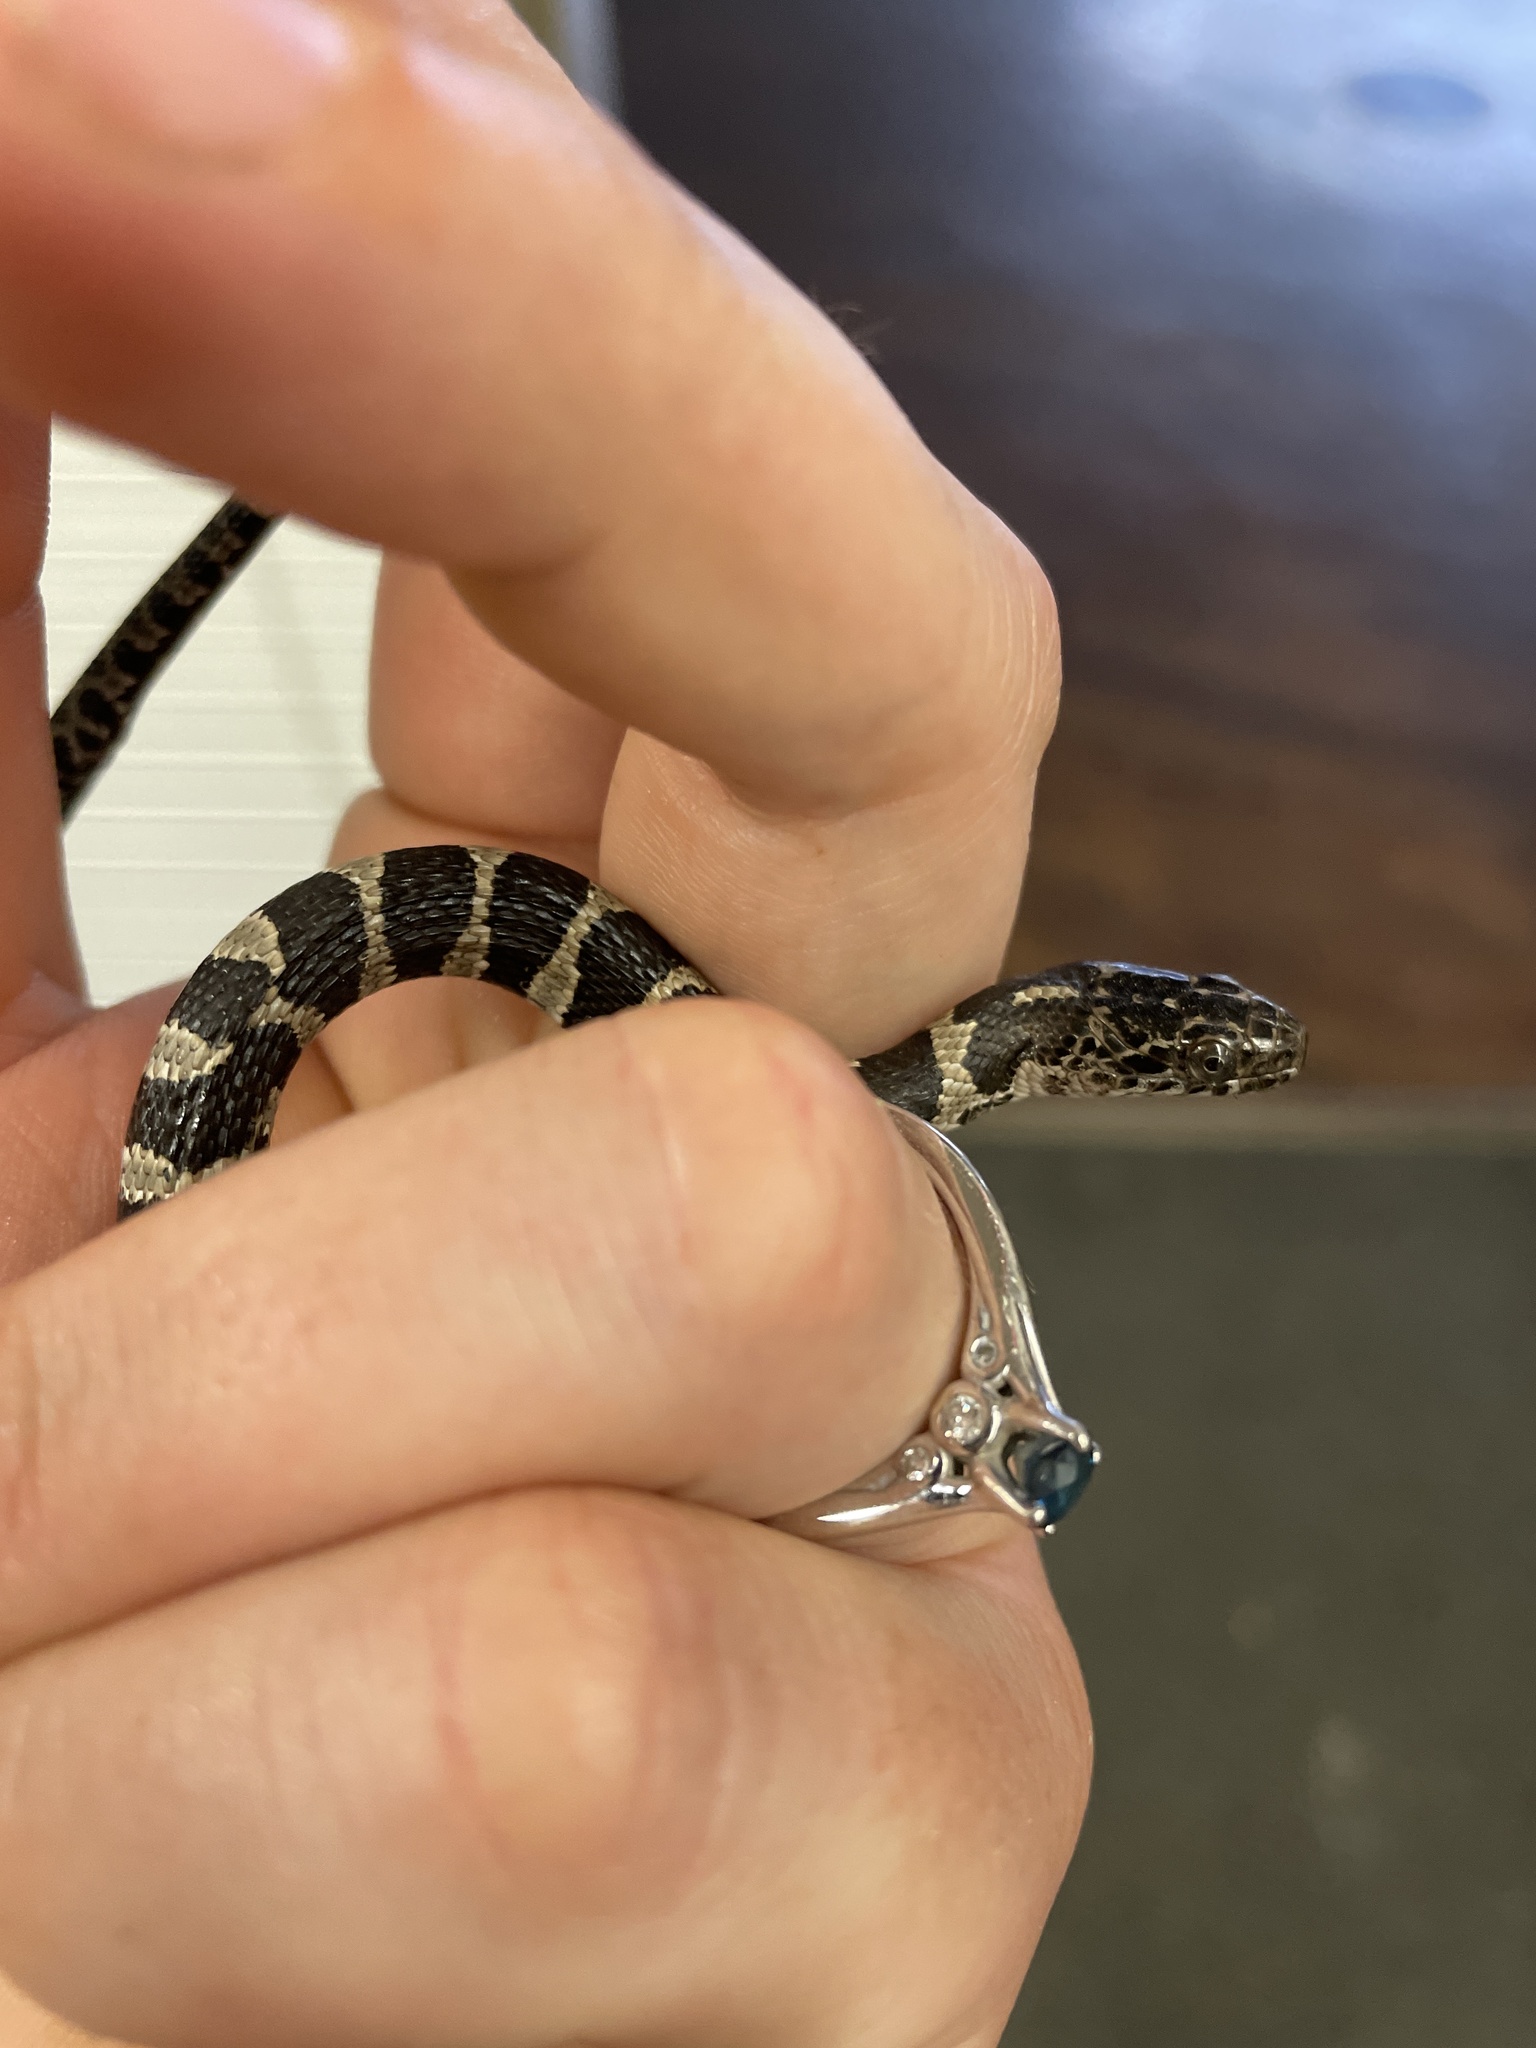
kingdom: Animalia
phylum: Chordata
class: Squamata
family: Colubridae
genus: Nerodia
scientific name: Nerodia sipedon
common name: Northern water snake
